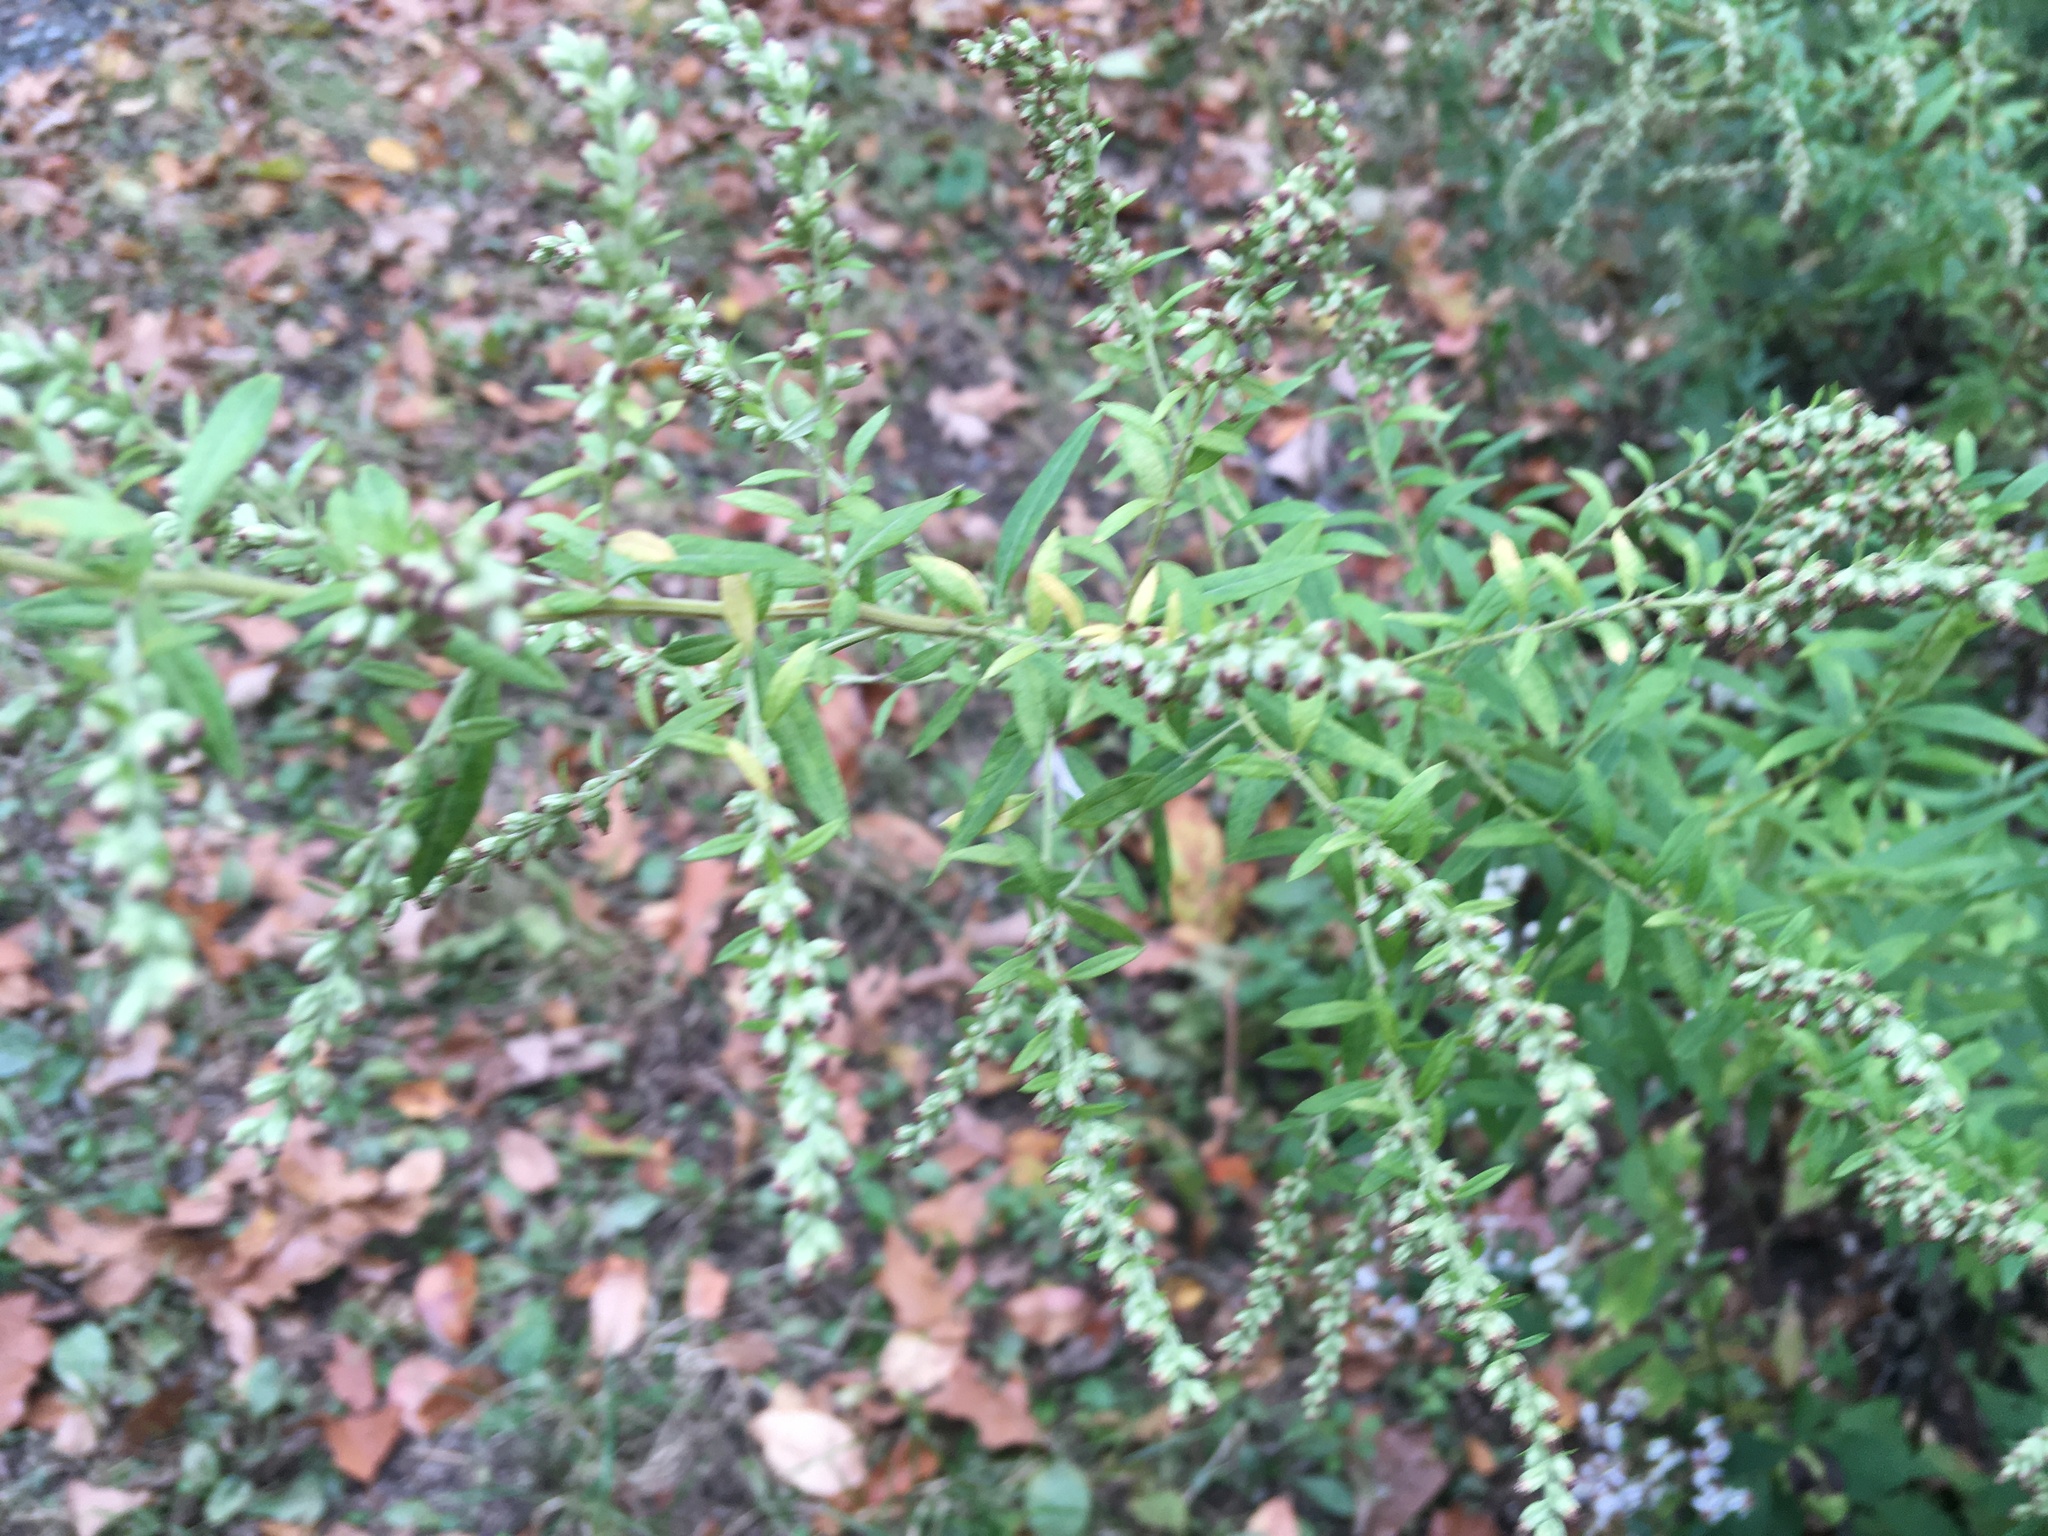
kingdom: Plantae
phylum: Tracheophyta
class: Magnoliopsida
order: Asterales
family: Asteraceae
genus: Artemisia
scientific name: Artemisia vulgaris
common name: Mugwort
